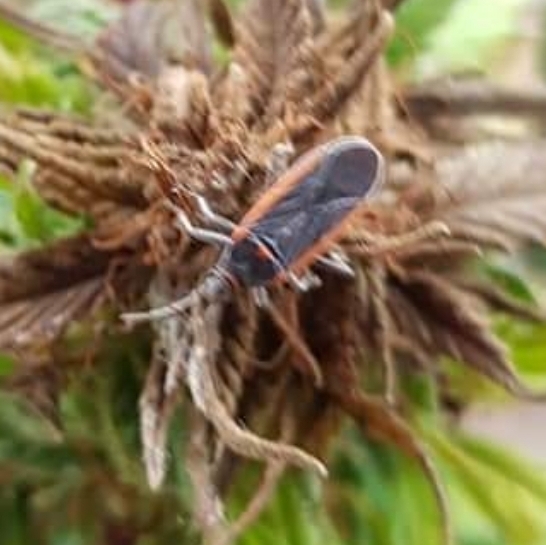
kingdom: Animalia
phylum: Arthropoda
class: Insecta
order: Hemiptera
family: Lygaeidae
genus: Melacoryphus
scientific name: Melacoryphus lateralis
